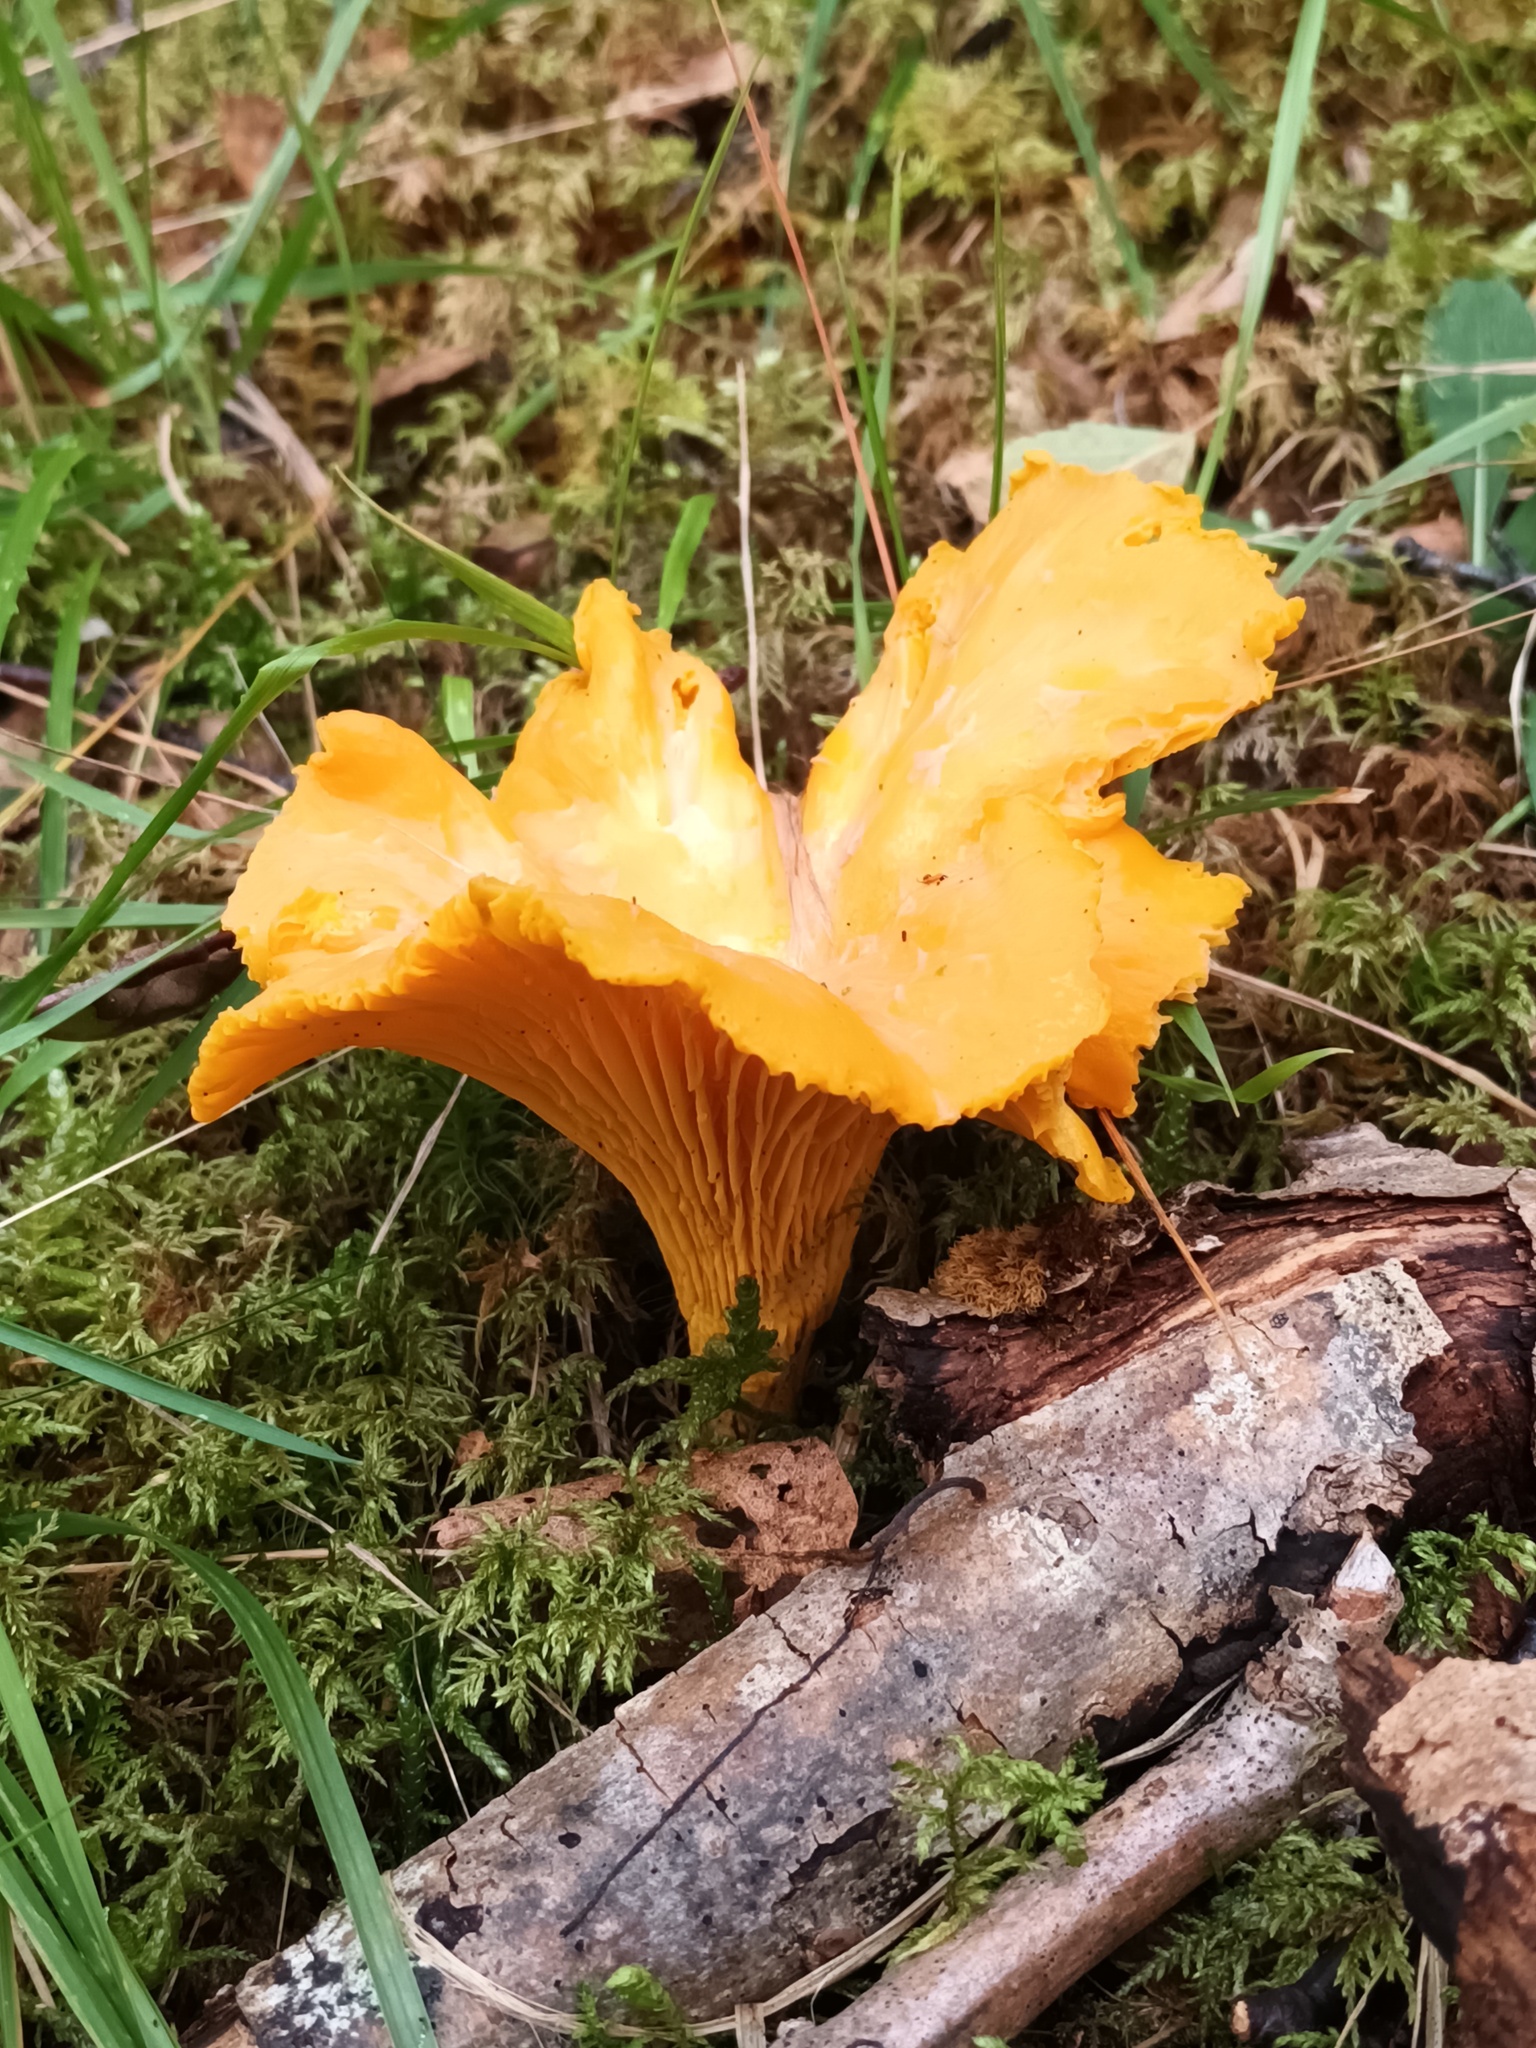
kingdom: Fungi
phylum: Basidiomycota
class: Agaricomycetes
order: Cantharellales
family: Hydnaceae
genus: Cantharellus
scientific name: Cantharellus cibarius
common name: Chanterelle
